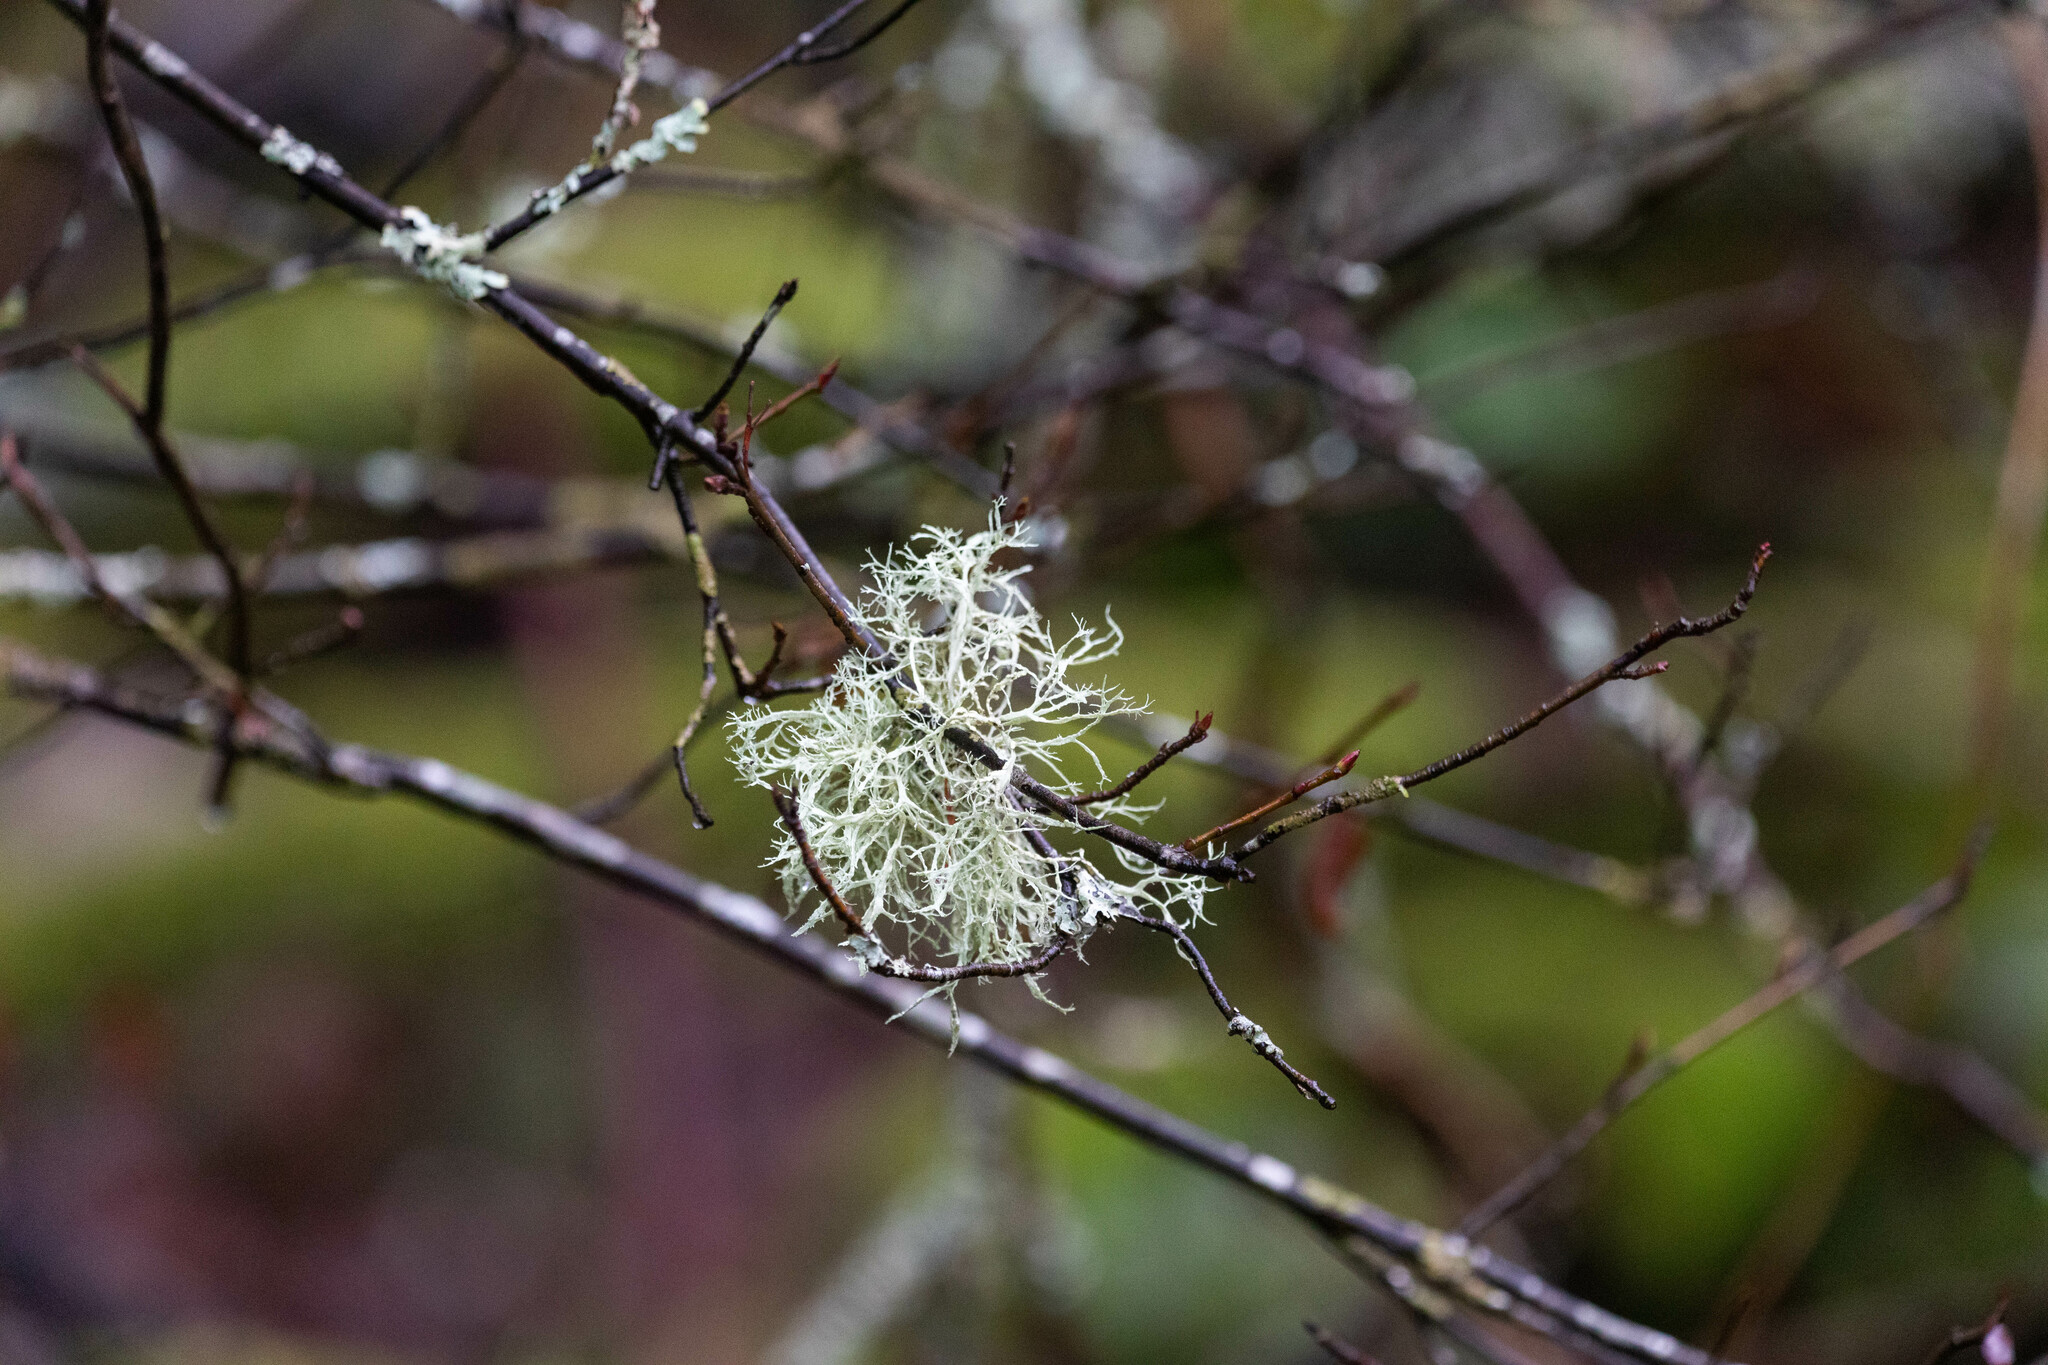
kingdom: Fungi
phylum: Ascomycota
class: Lecanoromycetes
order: Lecanorales
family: Parmeliaceae
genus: Evernia
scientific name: Evernia prunastri
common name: Oak moss
